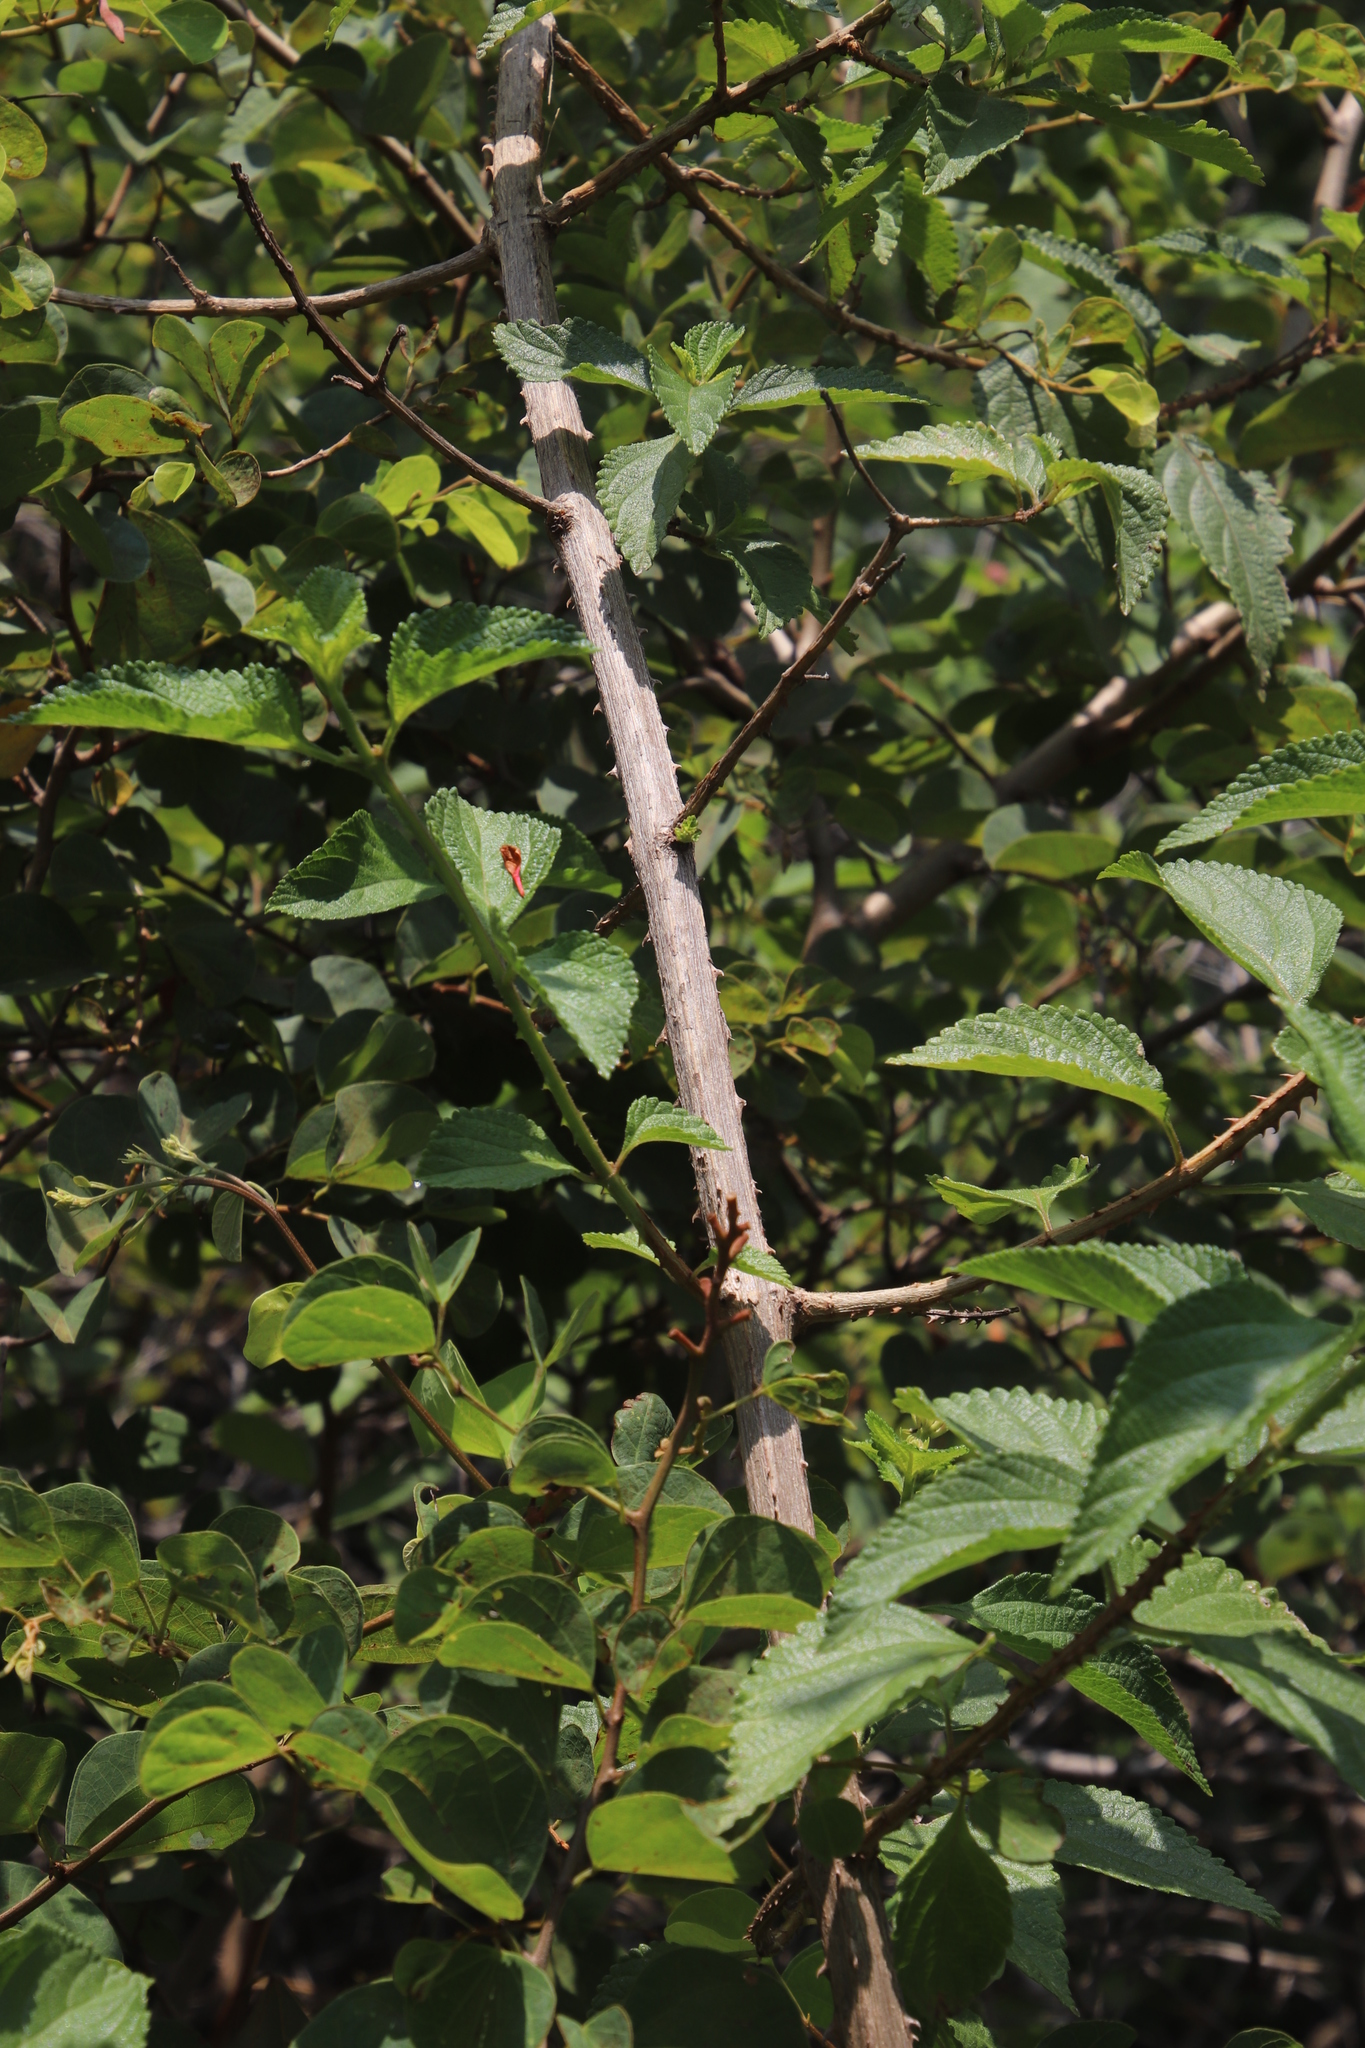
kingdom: Plantae
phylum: Tracheophyta
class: Magnoliopsida
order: Lamiales
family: Verbenaceae
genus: Lantana
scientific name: Lantana camara
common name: Lantana
